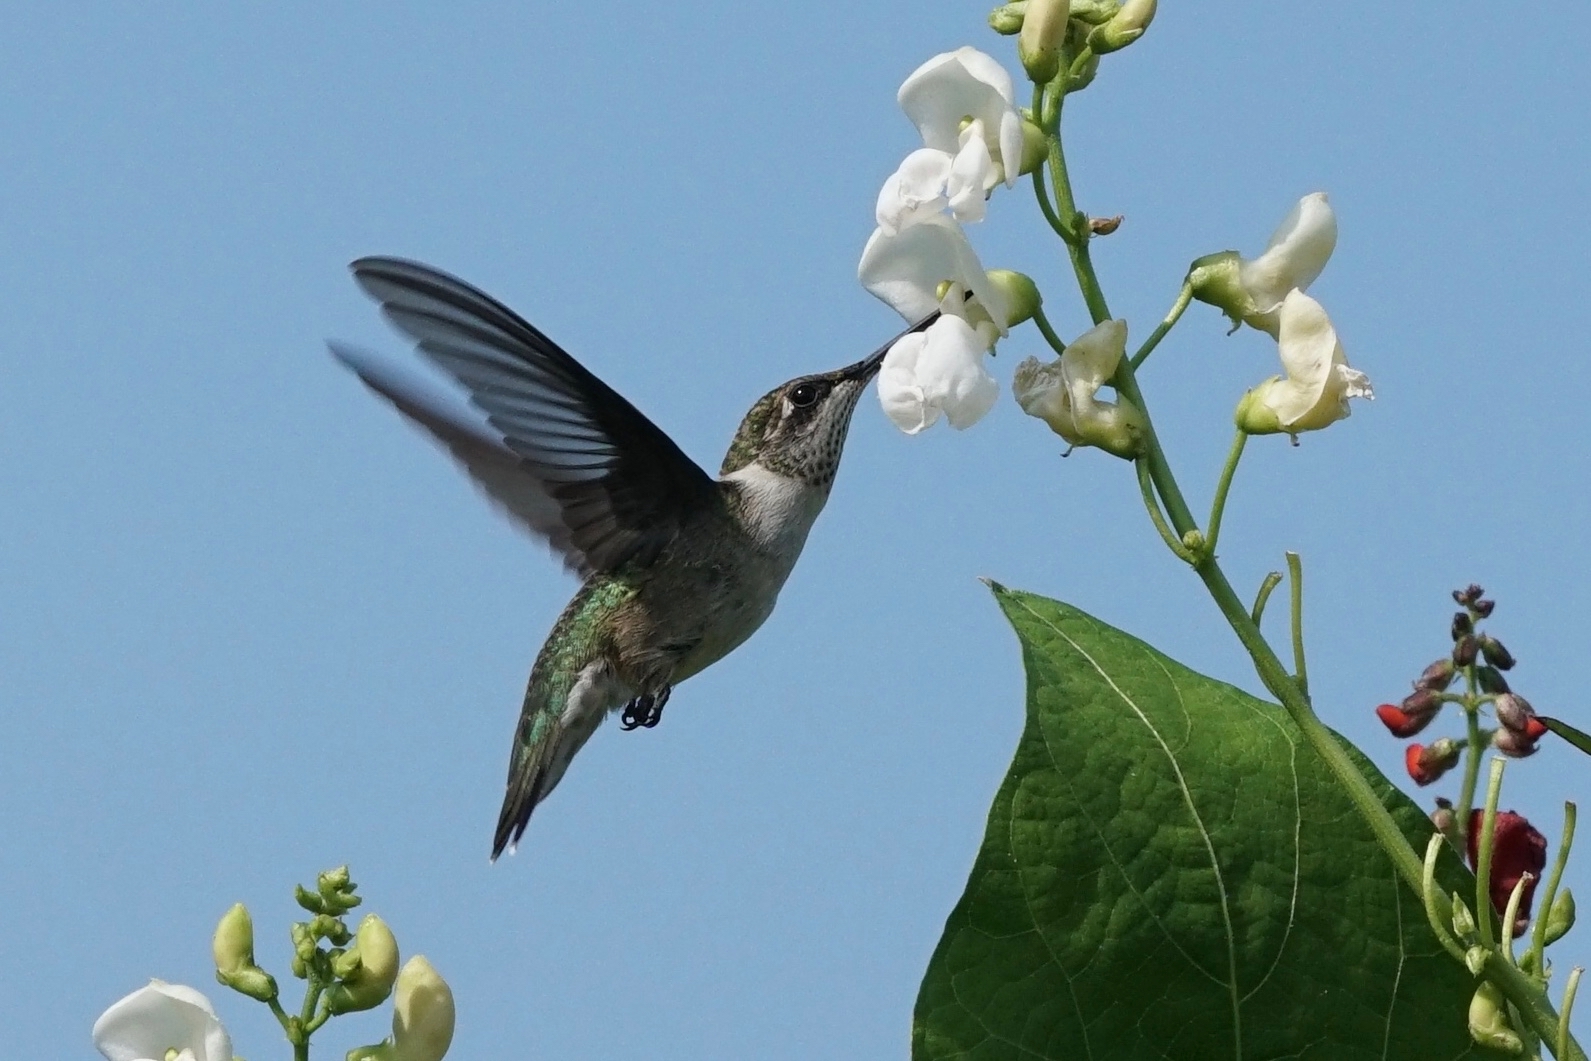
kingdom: Animalia
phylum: Chordata
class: Aves
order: Apodiformes
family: Trochilidae
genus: Archilochus
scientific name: Archilochus colubris
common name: Ruby-throated hummingbird
